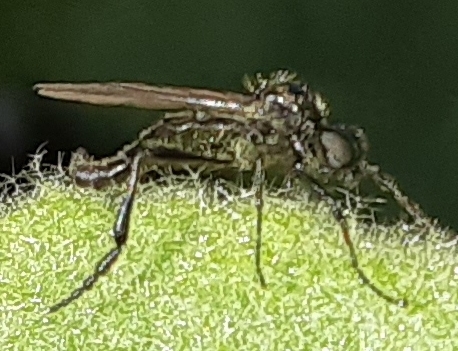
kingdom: Animalia
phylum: Arthropoda
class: Insecta
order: Diptera
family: Bibionidae
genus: Bibio
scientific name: Bibio
